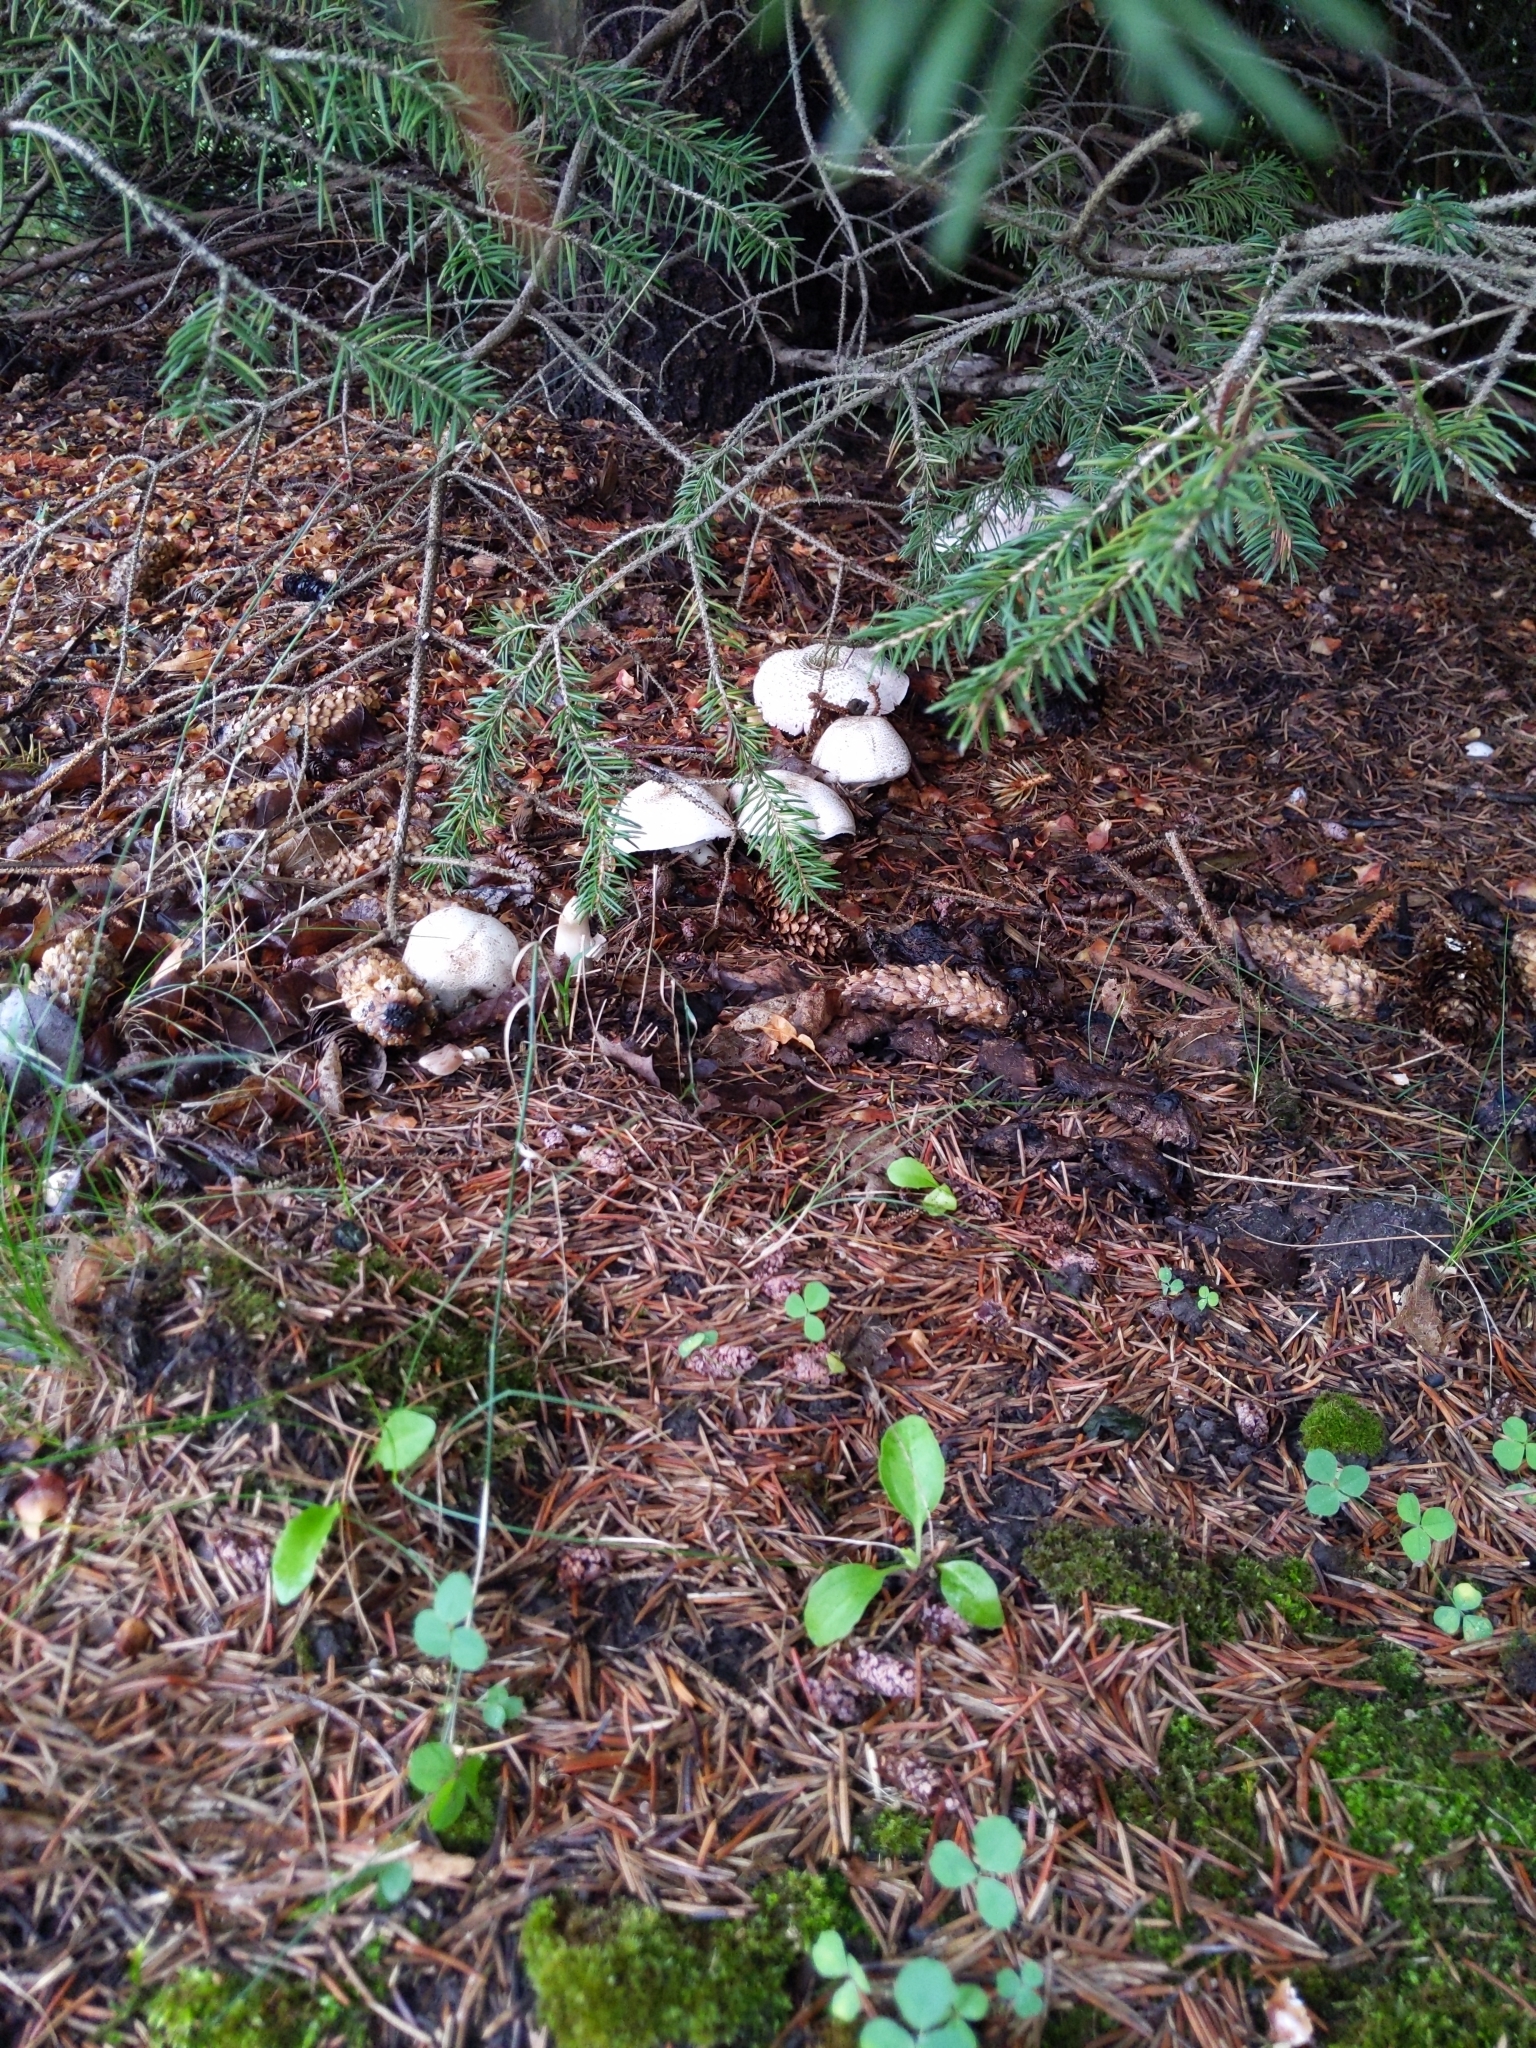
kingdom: Fungi
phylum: Basidiomycota
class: Agaricomycetes
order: Agaricales
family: Agaricaceae
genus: Lepiota
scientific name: Lepiota cristata
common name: Stinking dapperling
